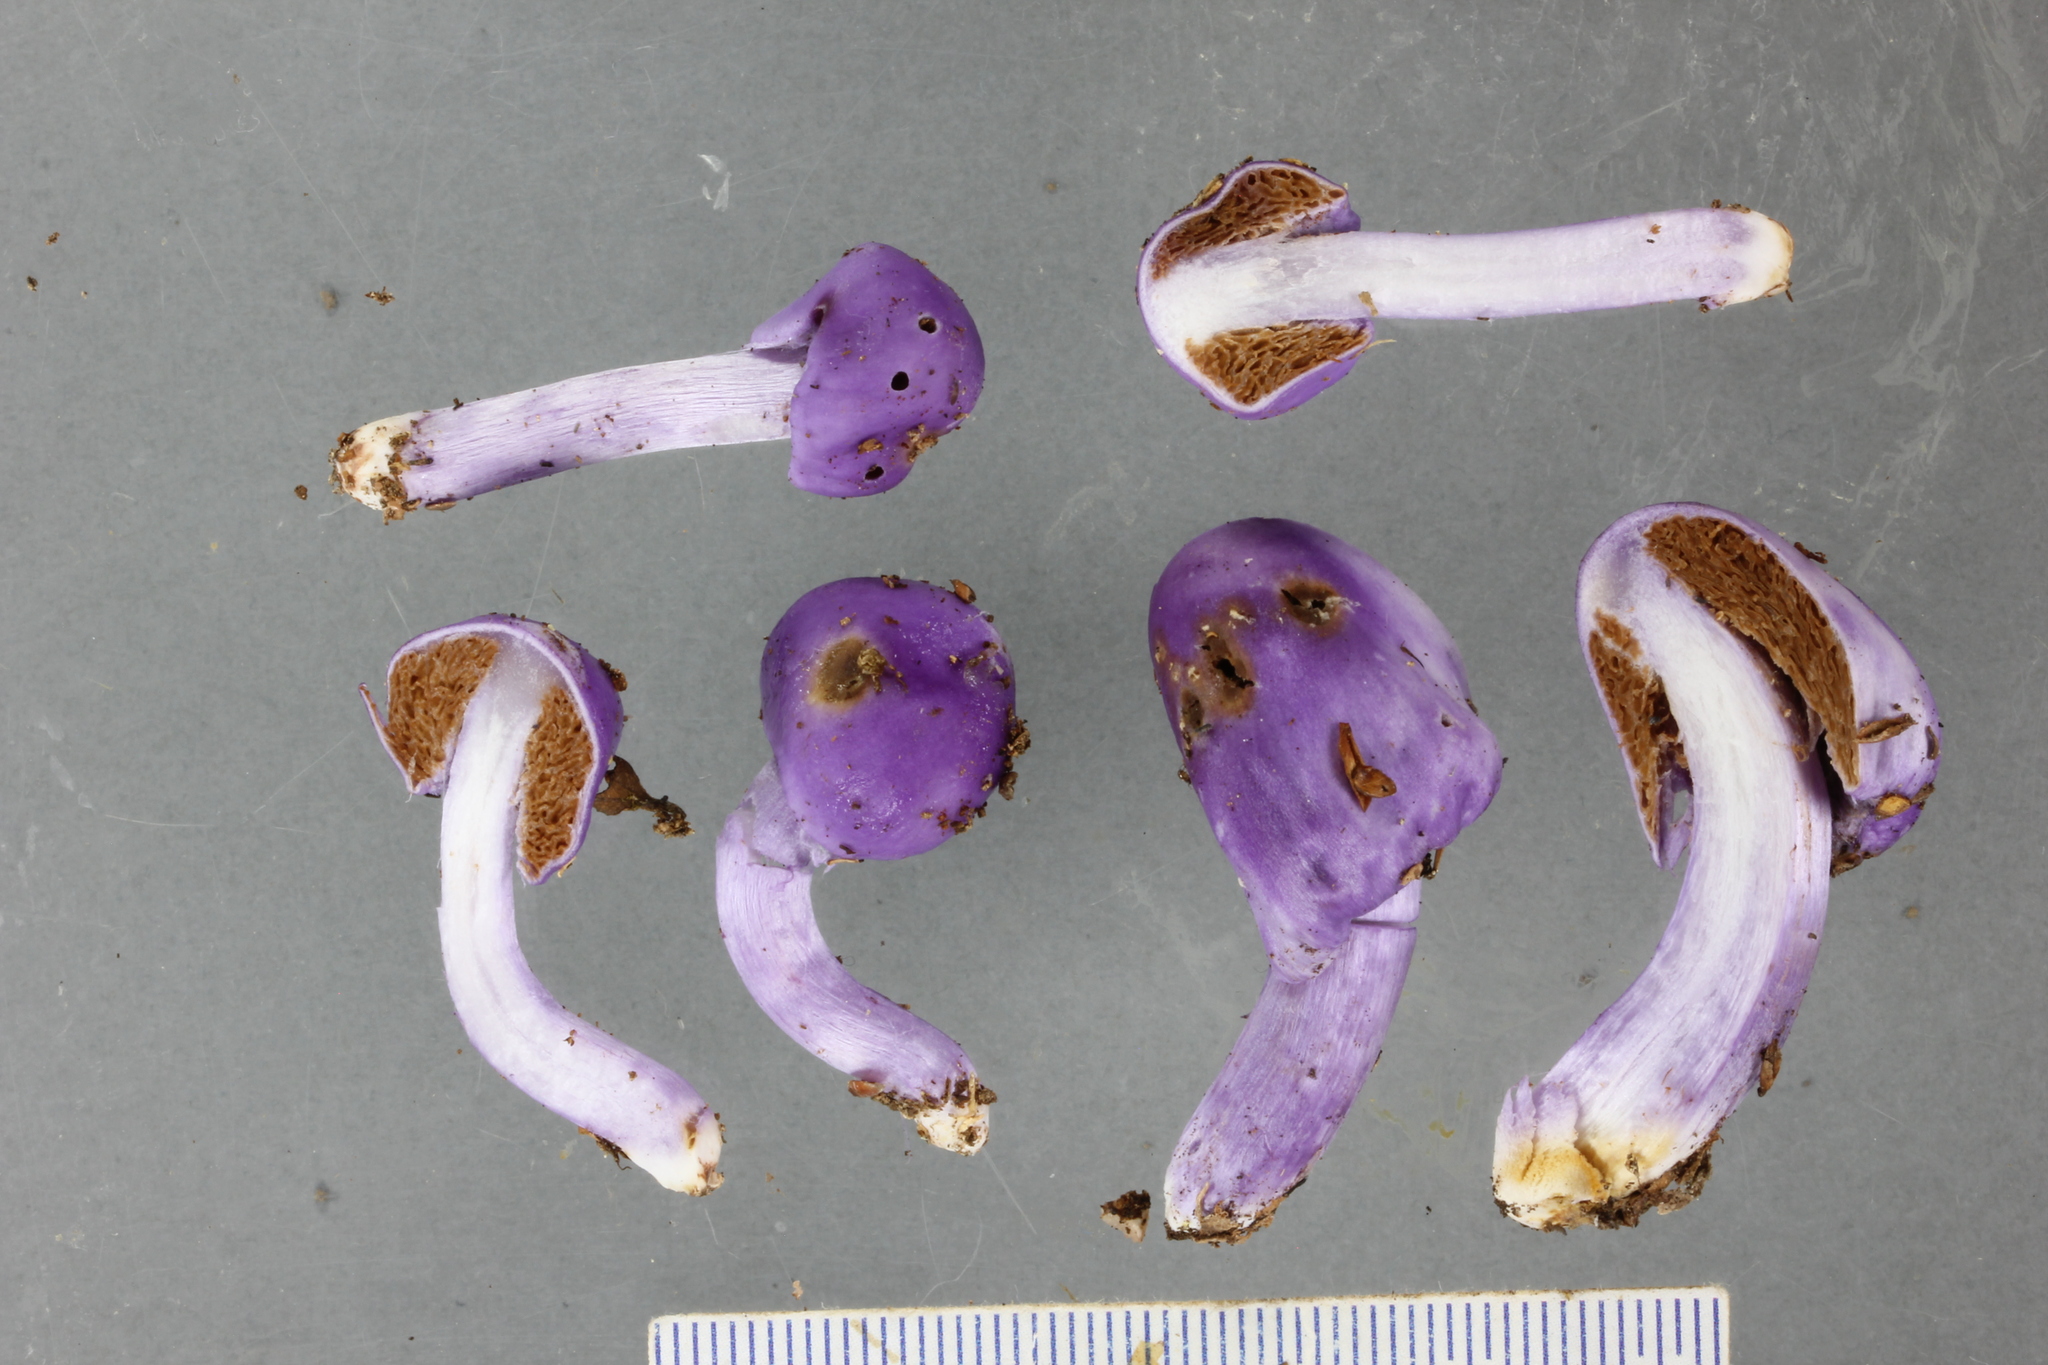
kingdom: Fungi
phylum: Basidiomycota
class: Agaricomycetes
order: Agaricales
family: Cortinariaceae
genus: Cortinarius
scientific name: Cortinarius violaceovolvatus
